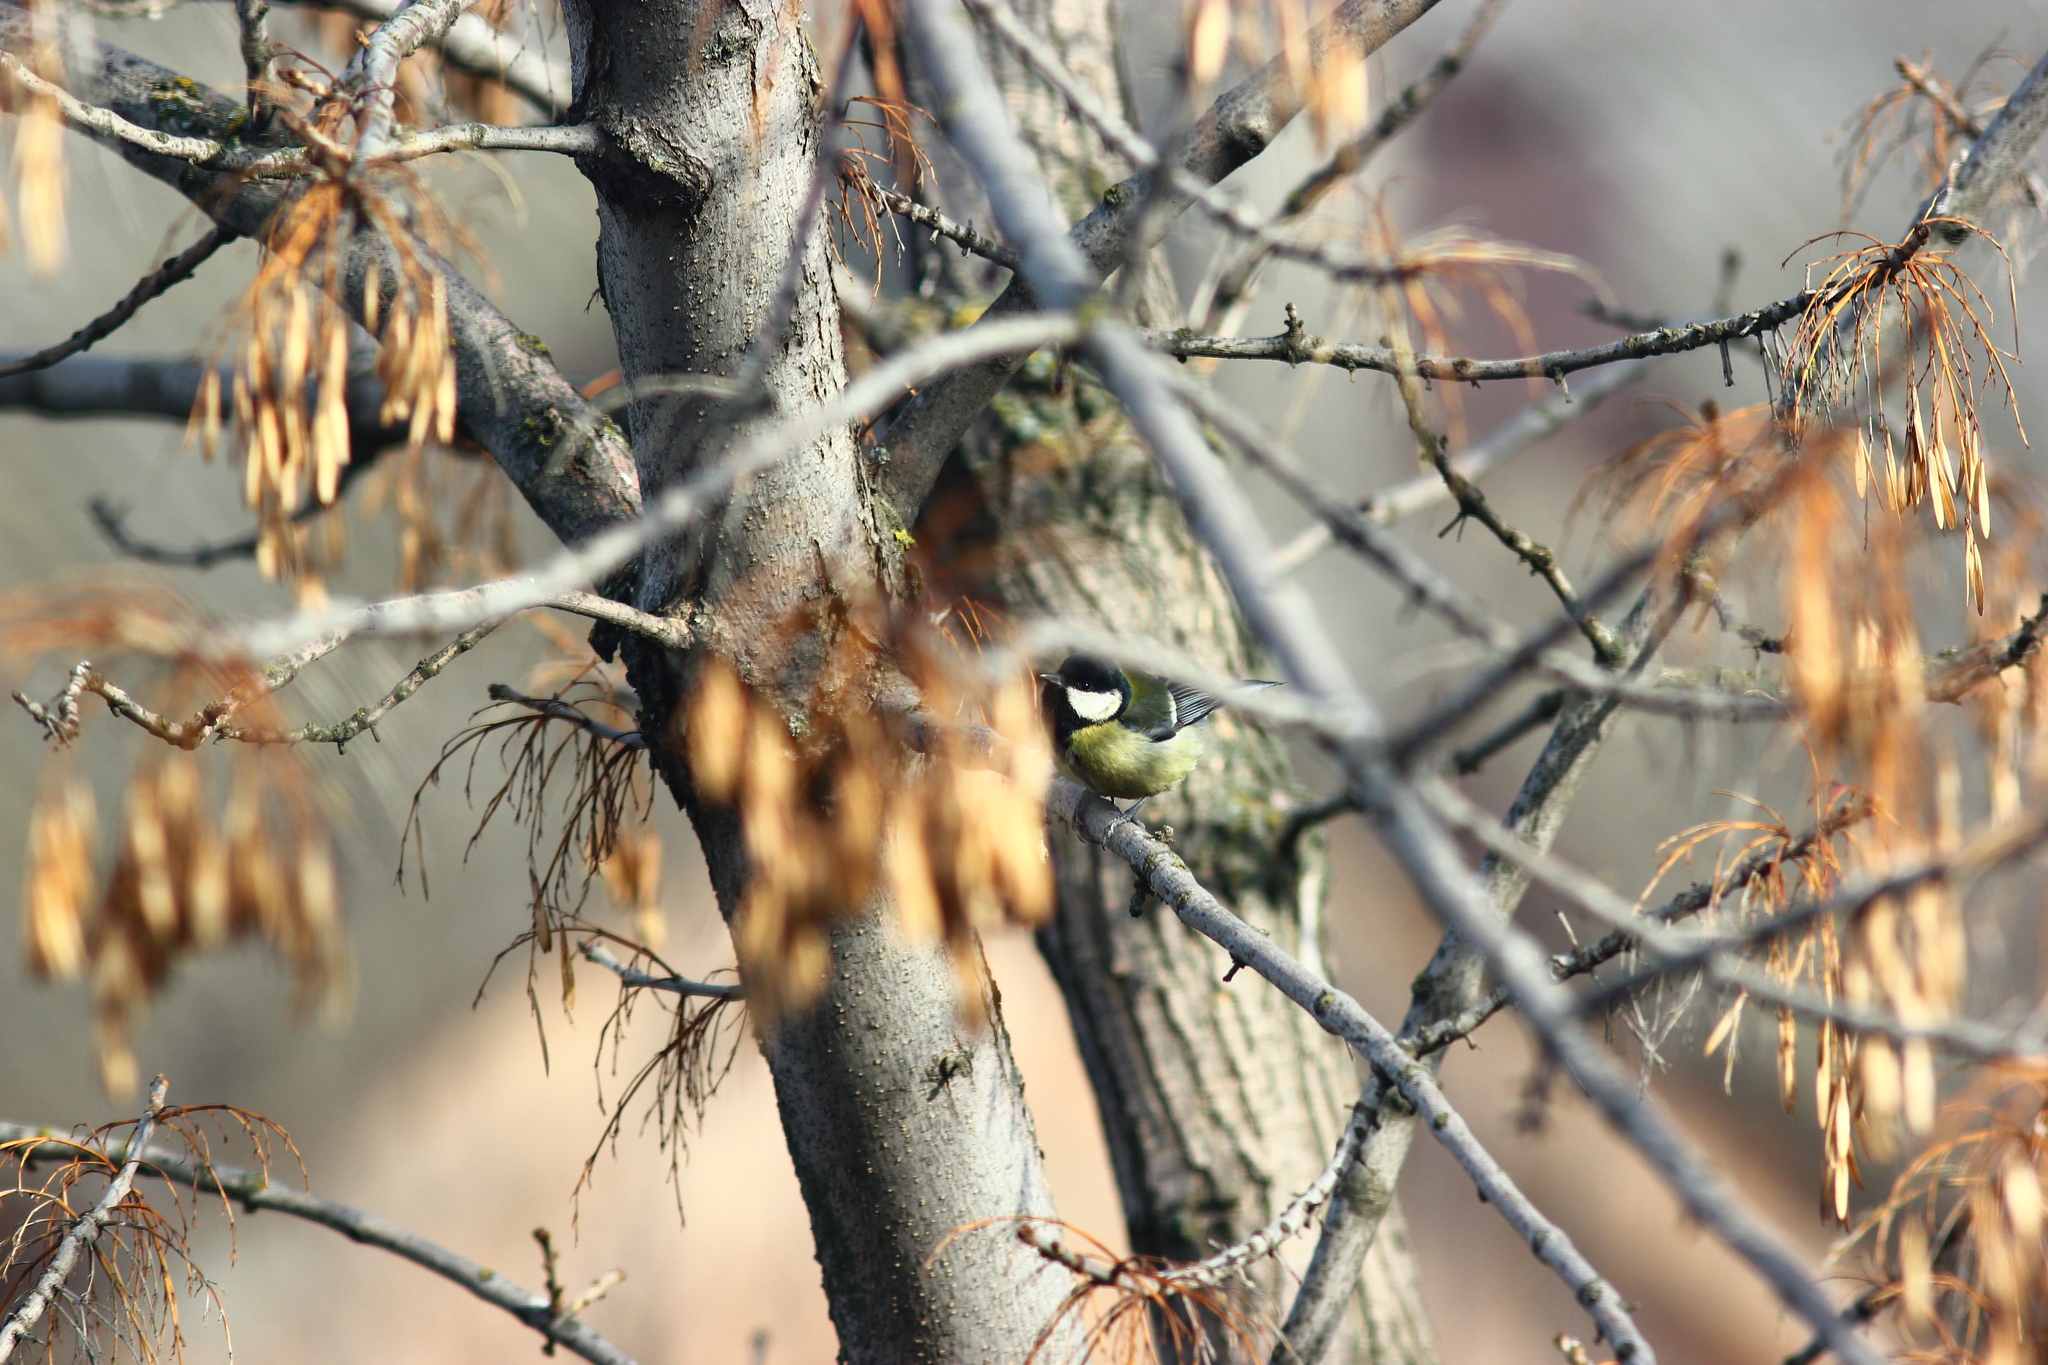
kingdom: Animalia
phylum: Chordata
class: Aves
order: Passeriformes
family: Paridae
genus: Parus
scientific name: Parus major
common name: Great tit
